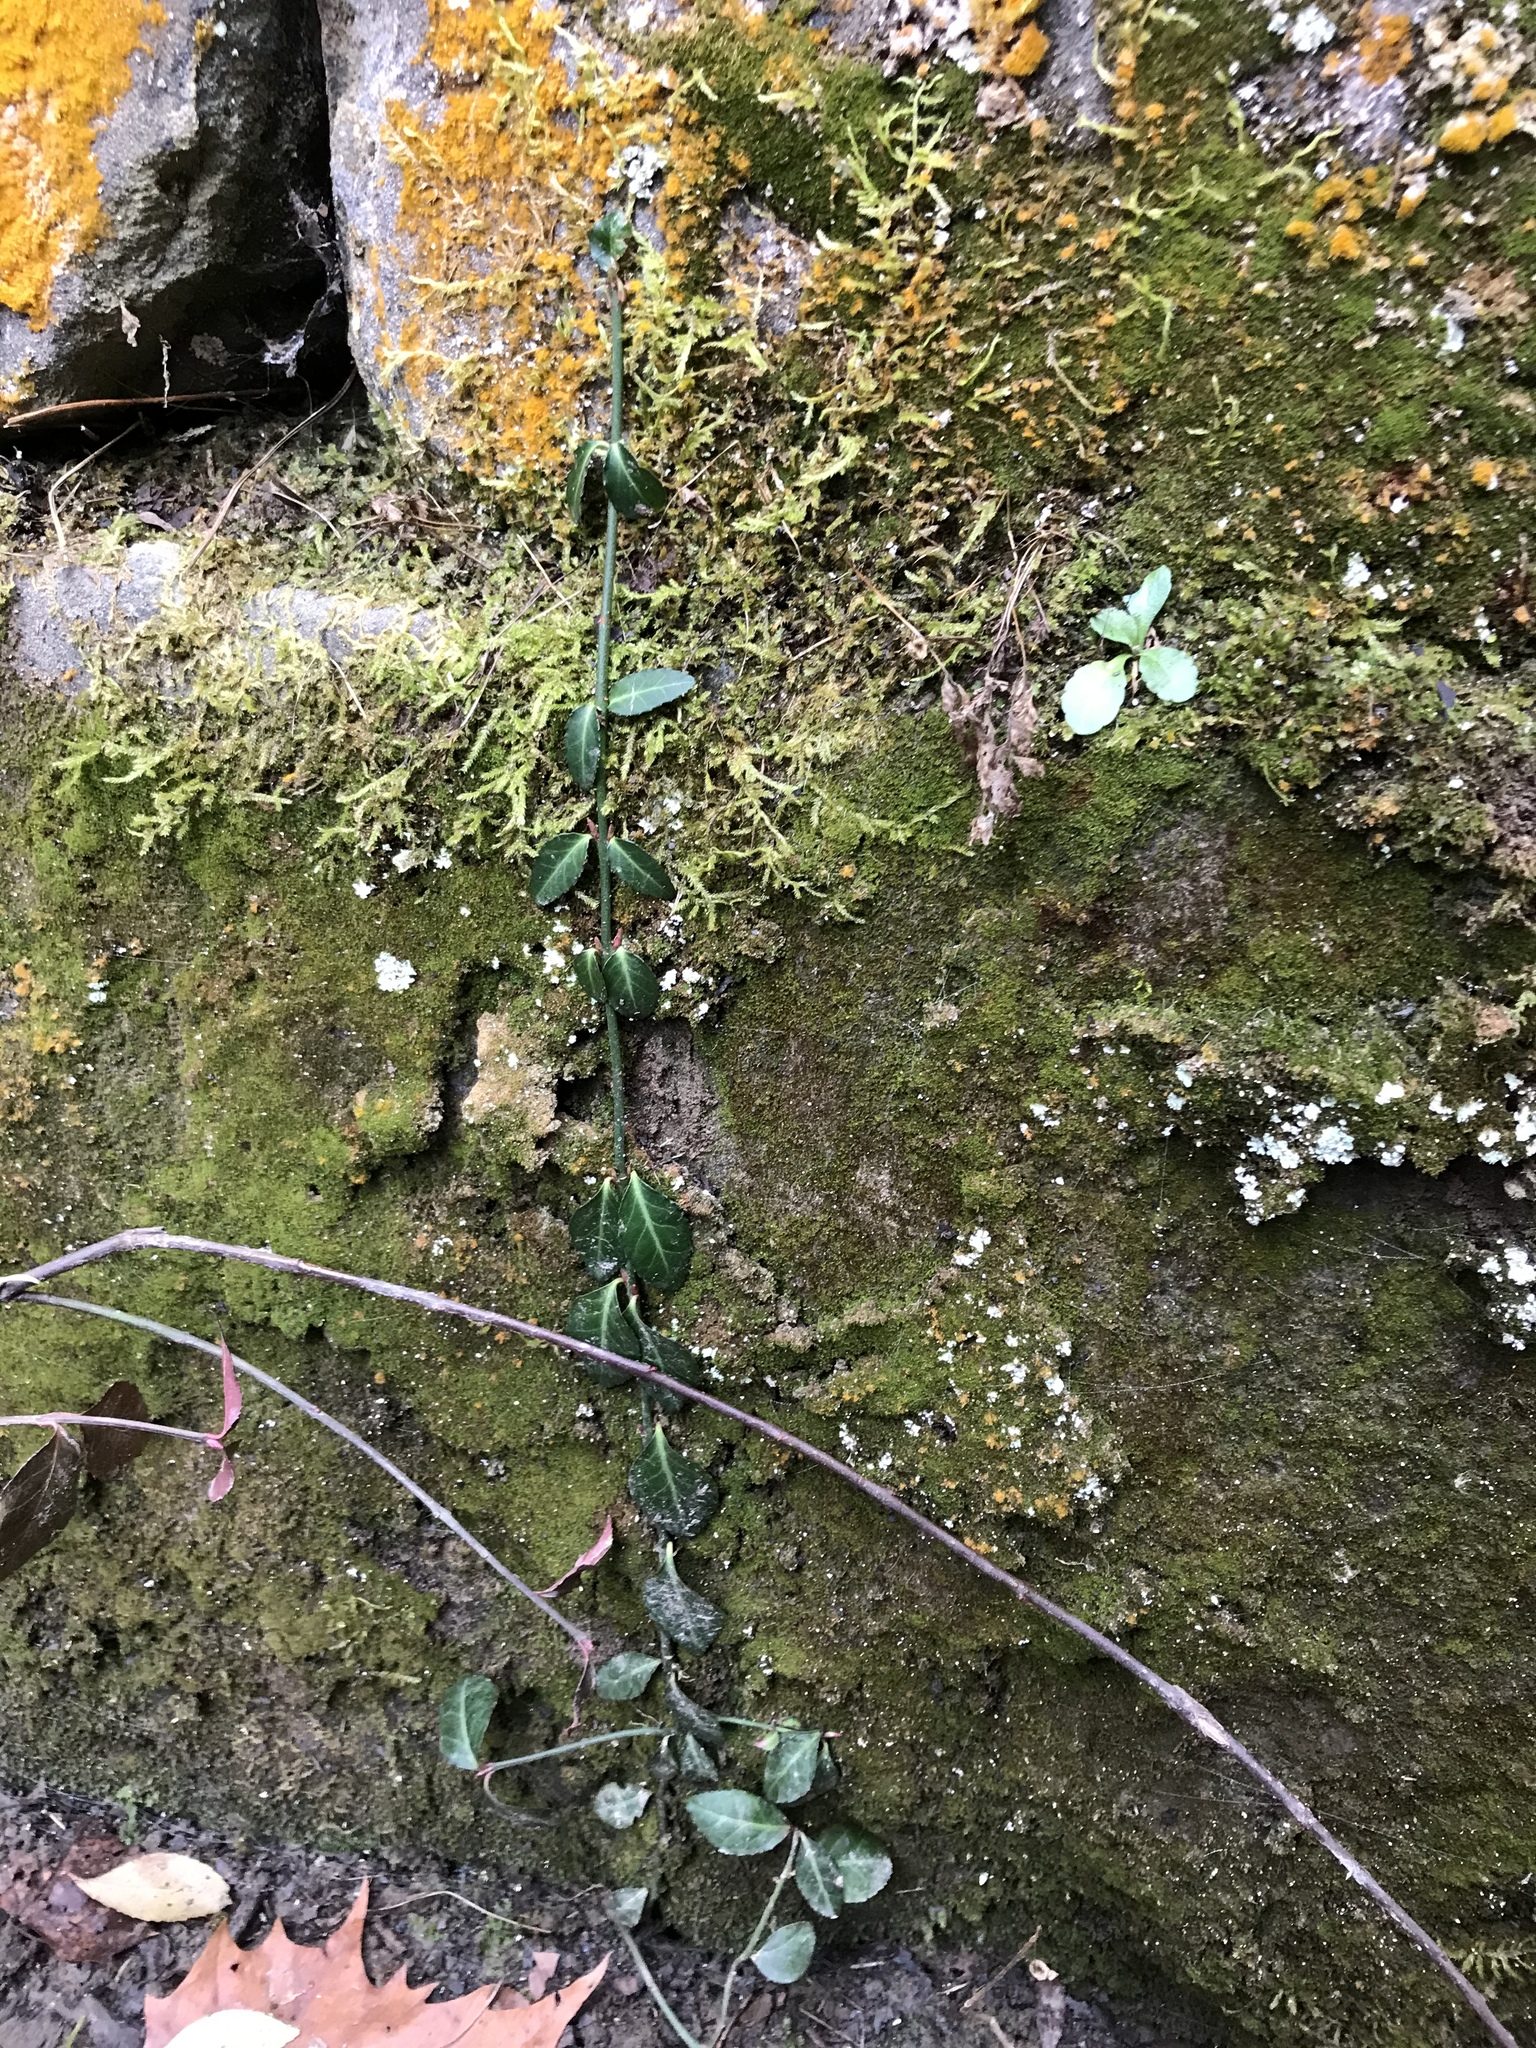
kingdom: Plantae
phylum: Tracheophyta
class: Magnoliopsida
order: Celastrales
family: Celastraceae
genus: Euonymus
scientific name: Euonymus fortunei
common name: Climbing euonymus
